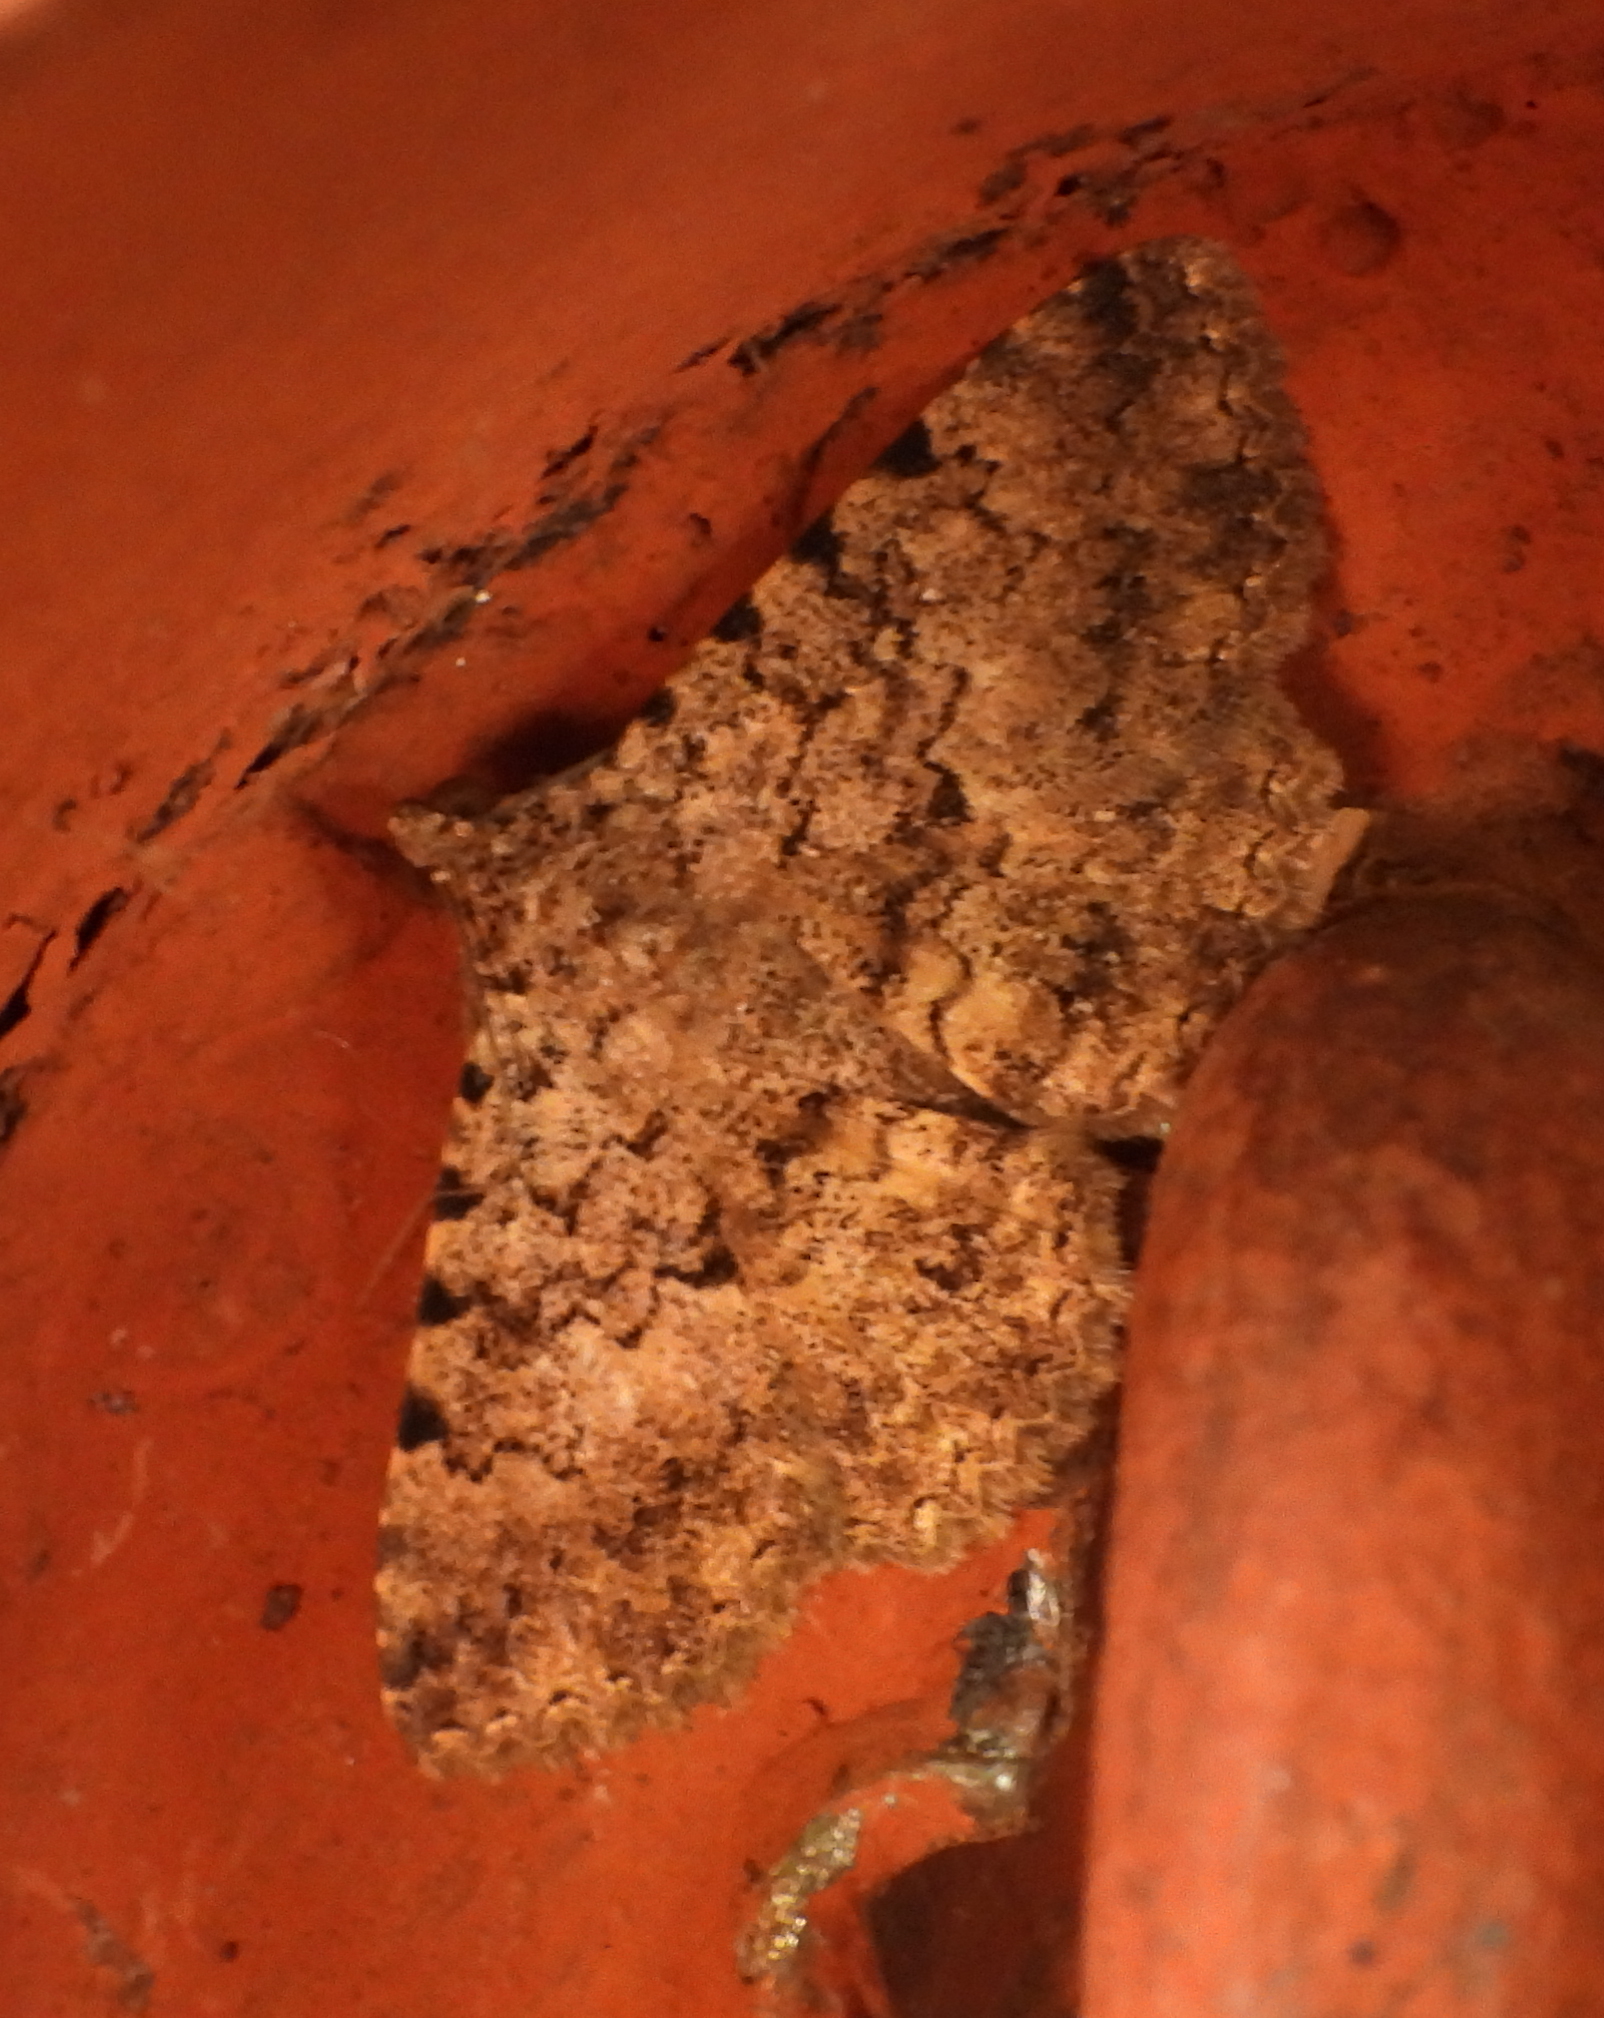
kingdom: Animalia
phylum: Arthropoda
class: Insecta
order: Lepidoptera
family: Erebidae
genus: Polydesma
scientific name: Polydesma umbricola
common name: Monkeypod moth
